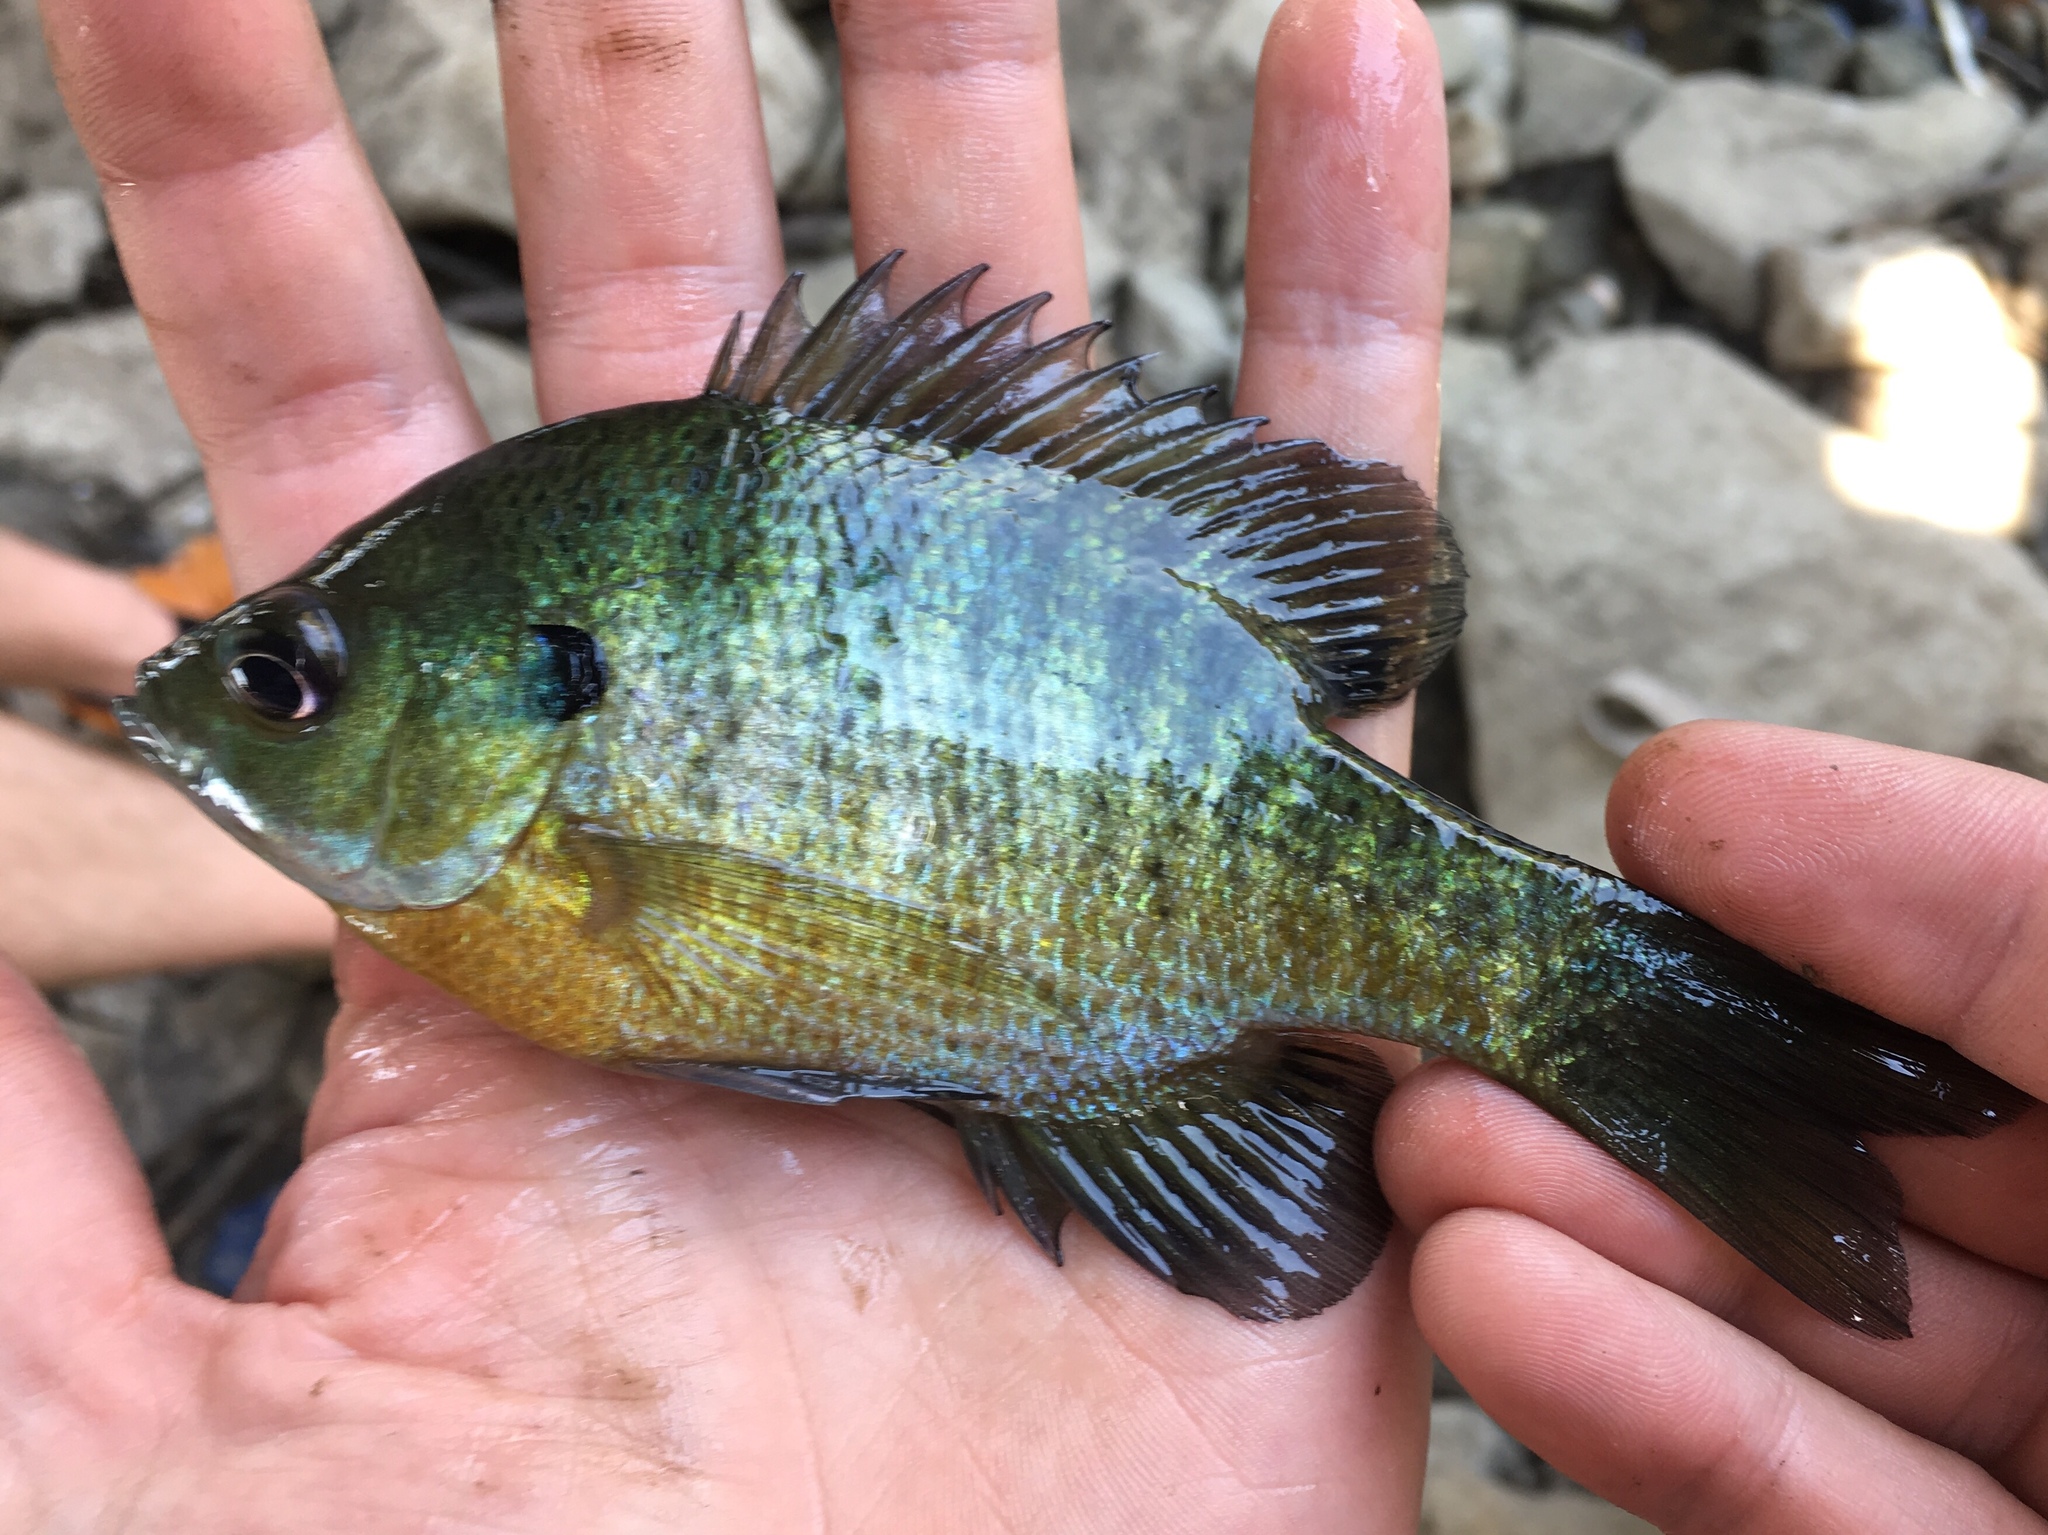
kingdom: Animalia
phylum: Chordata
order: Perciformes
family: Centrarchidae
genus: Lepomis
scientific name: Lepomis macrochirus
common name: Bluegill
